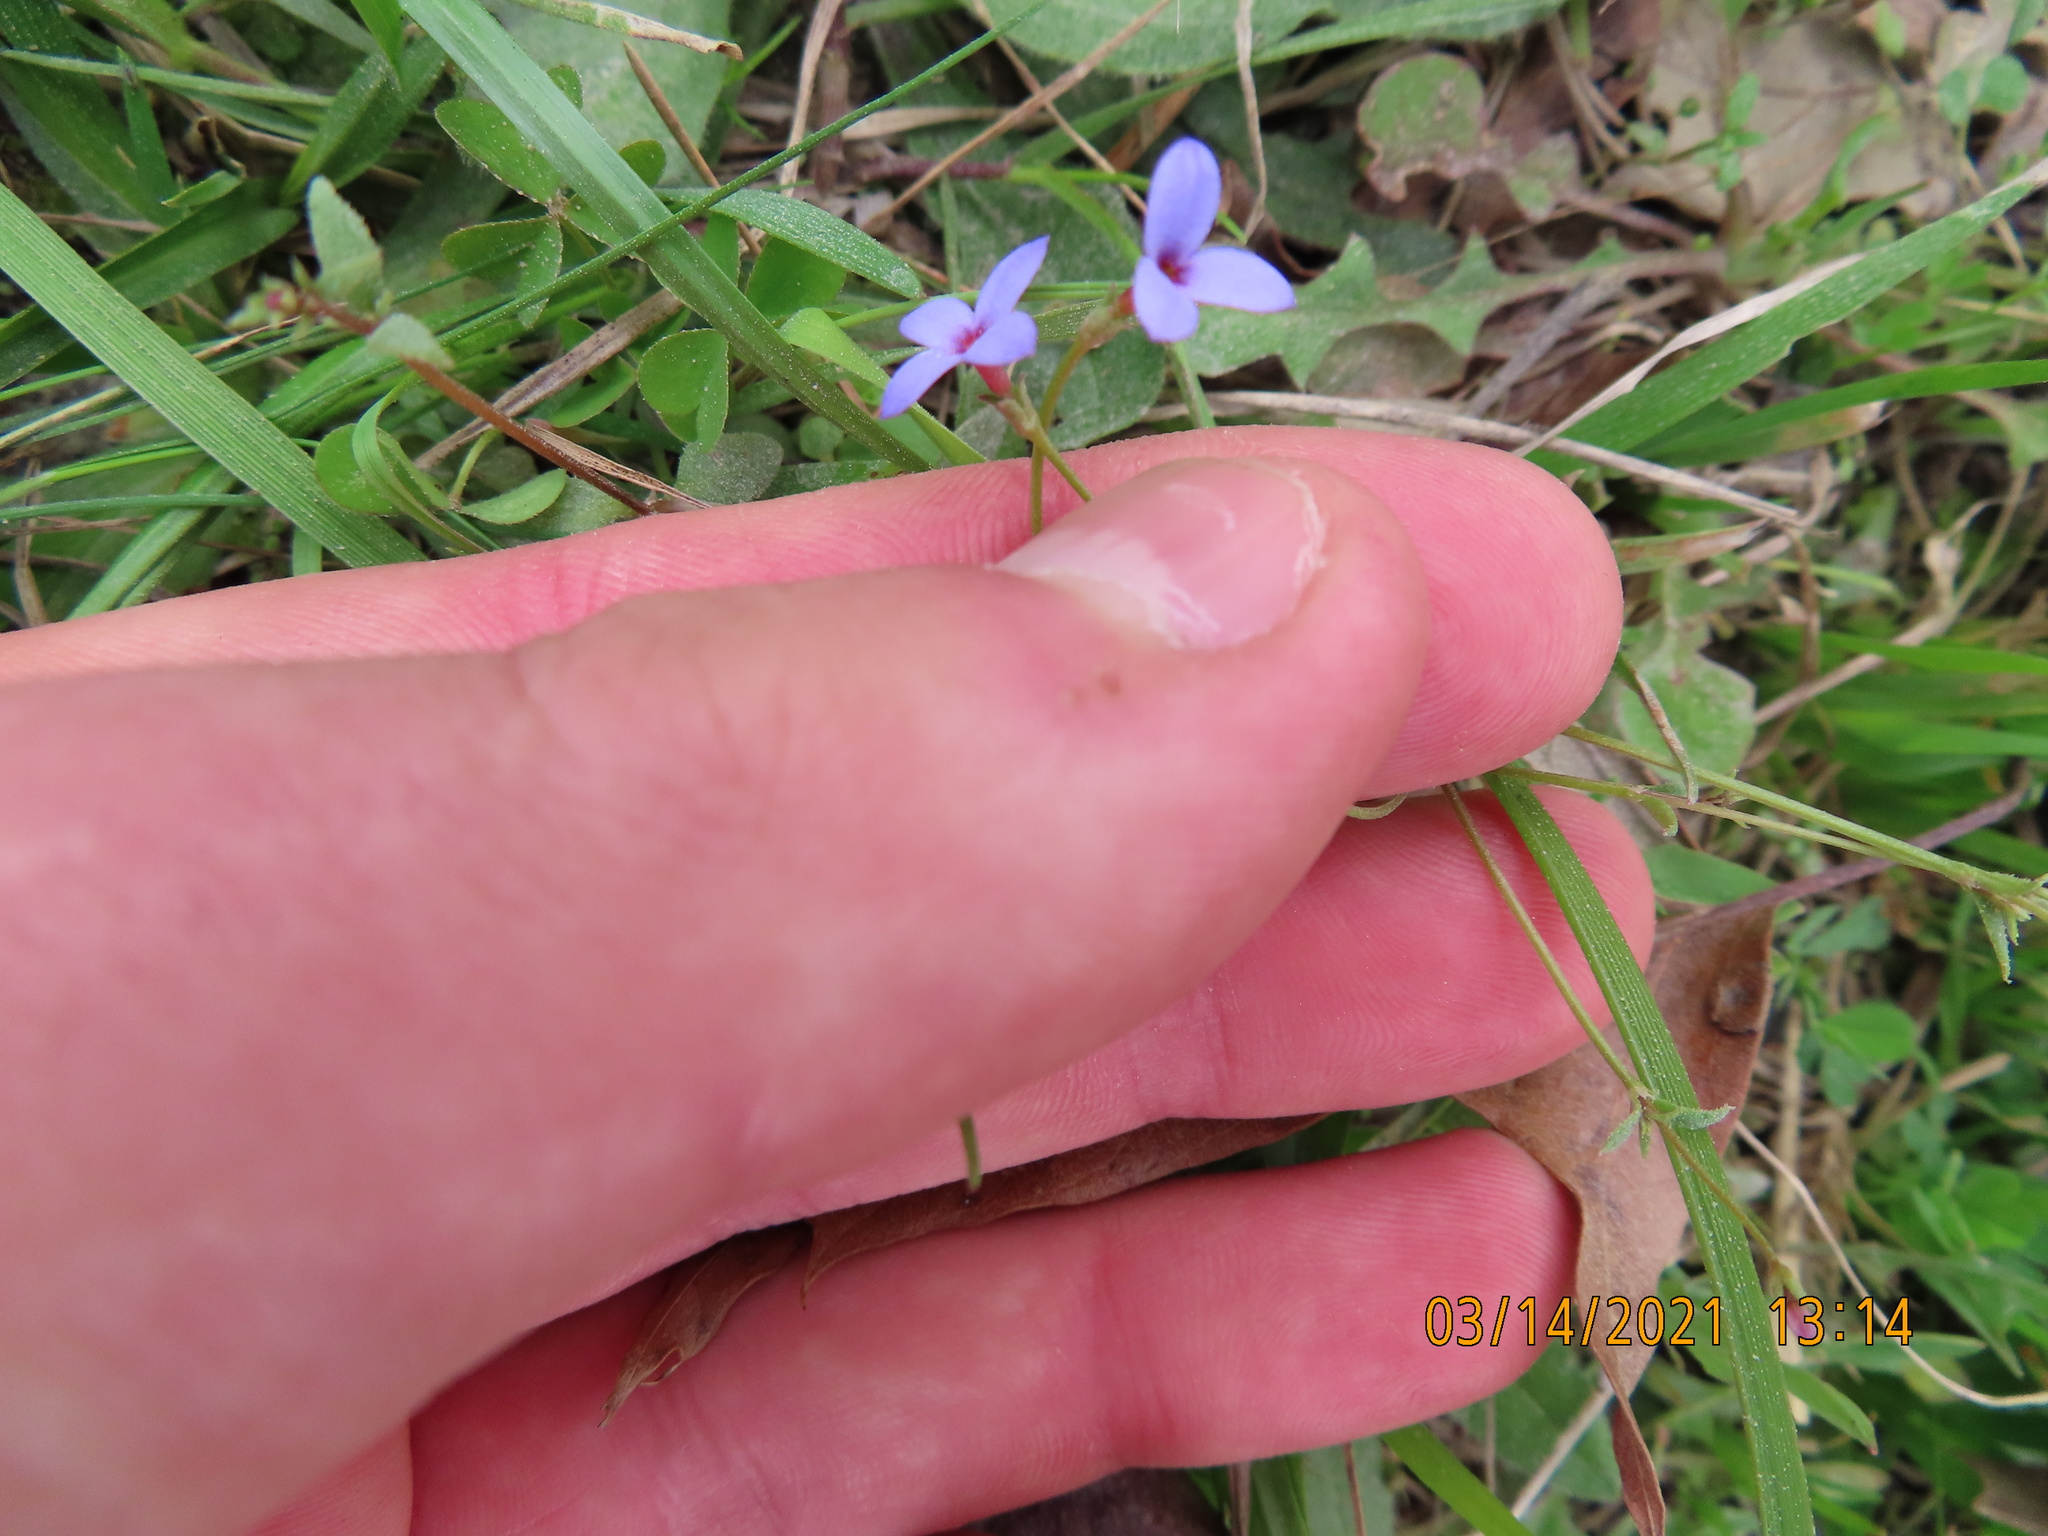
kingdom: Plantae
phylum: Tracheophyta
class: Magnoliopsida
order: Gentianales
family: Rubiaceae
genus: Houstonia
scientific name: Houstonia pusilla
